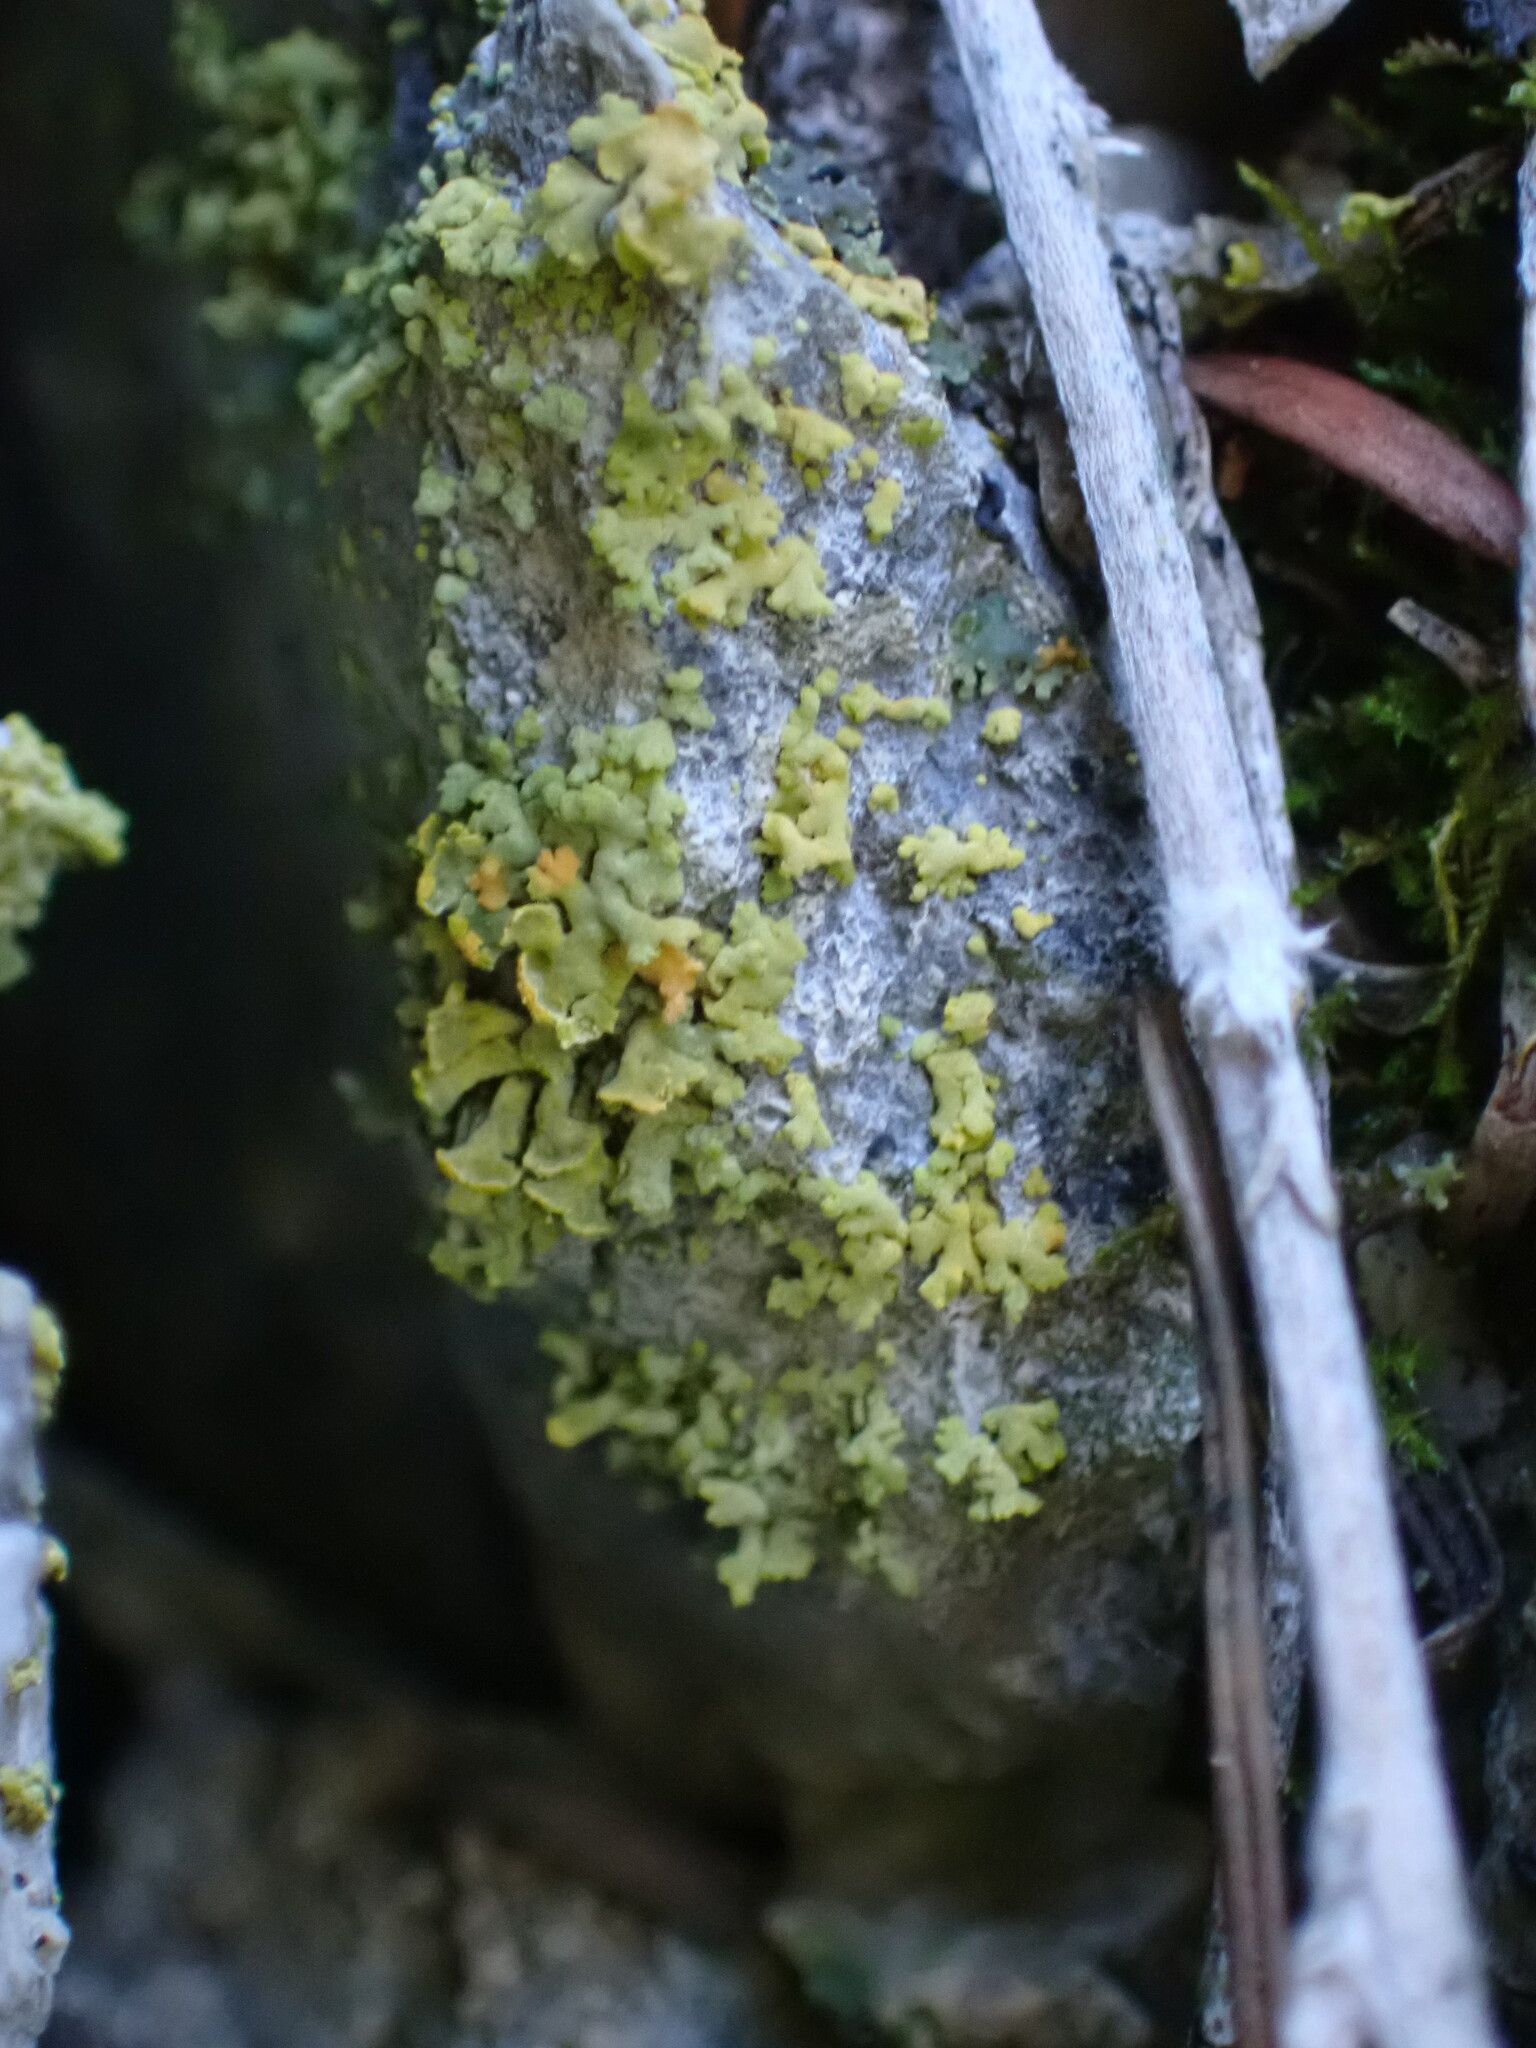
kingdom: Fungi
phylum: Ascomycota
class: Lecanoromycetes
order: Lecanorales
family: Parmeliaceae
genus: Vulpicida
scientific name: Vulpicida pinastri
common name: Powdered sunshine lichen
